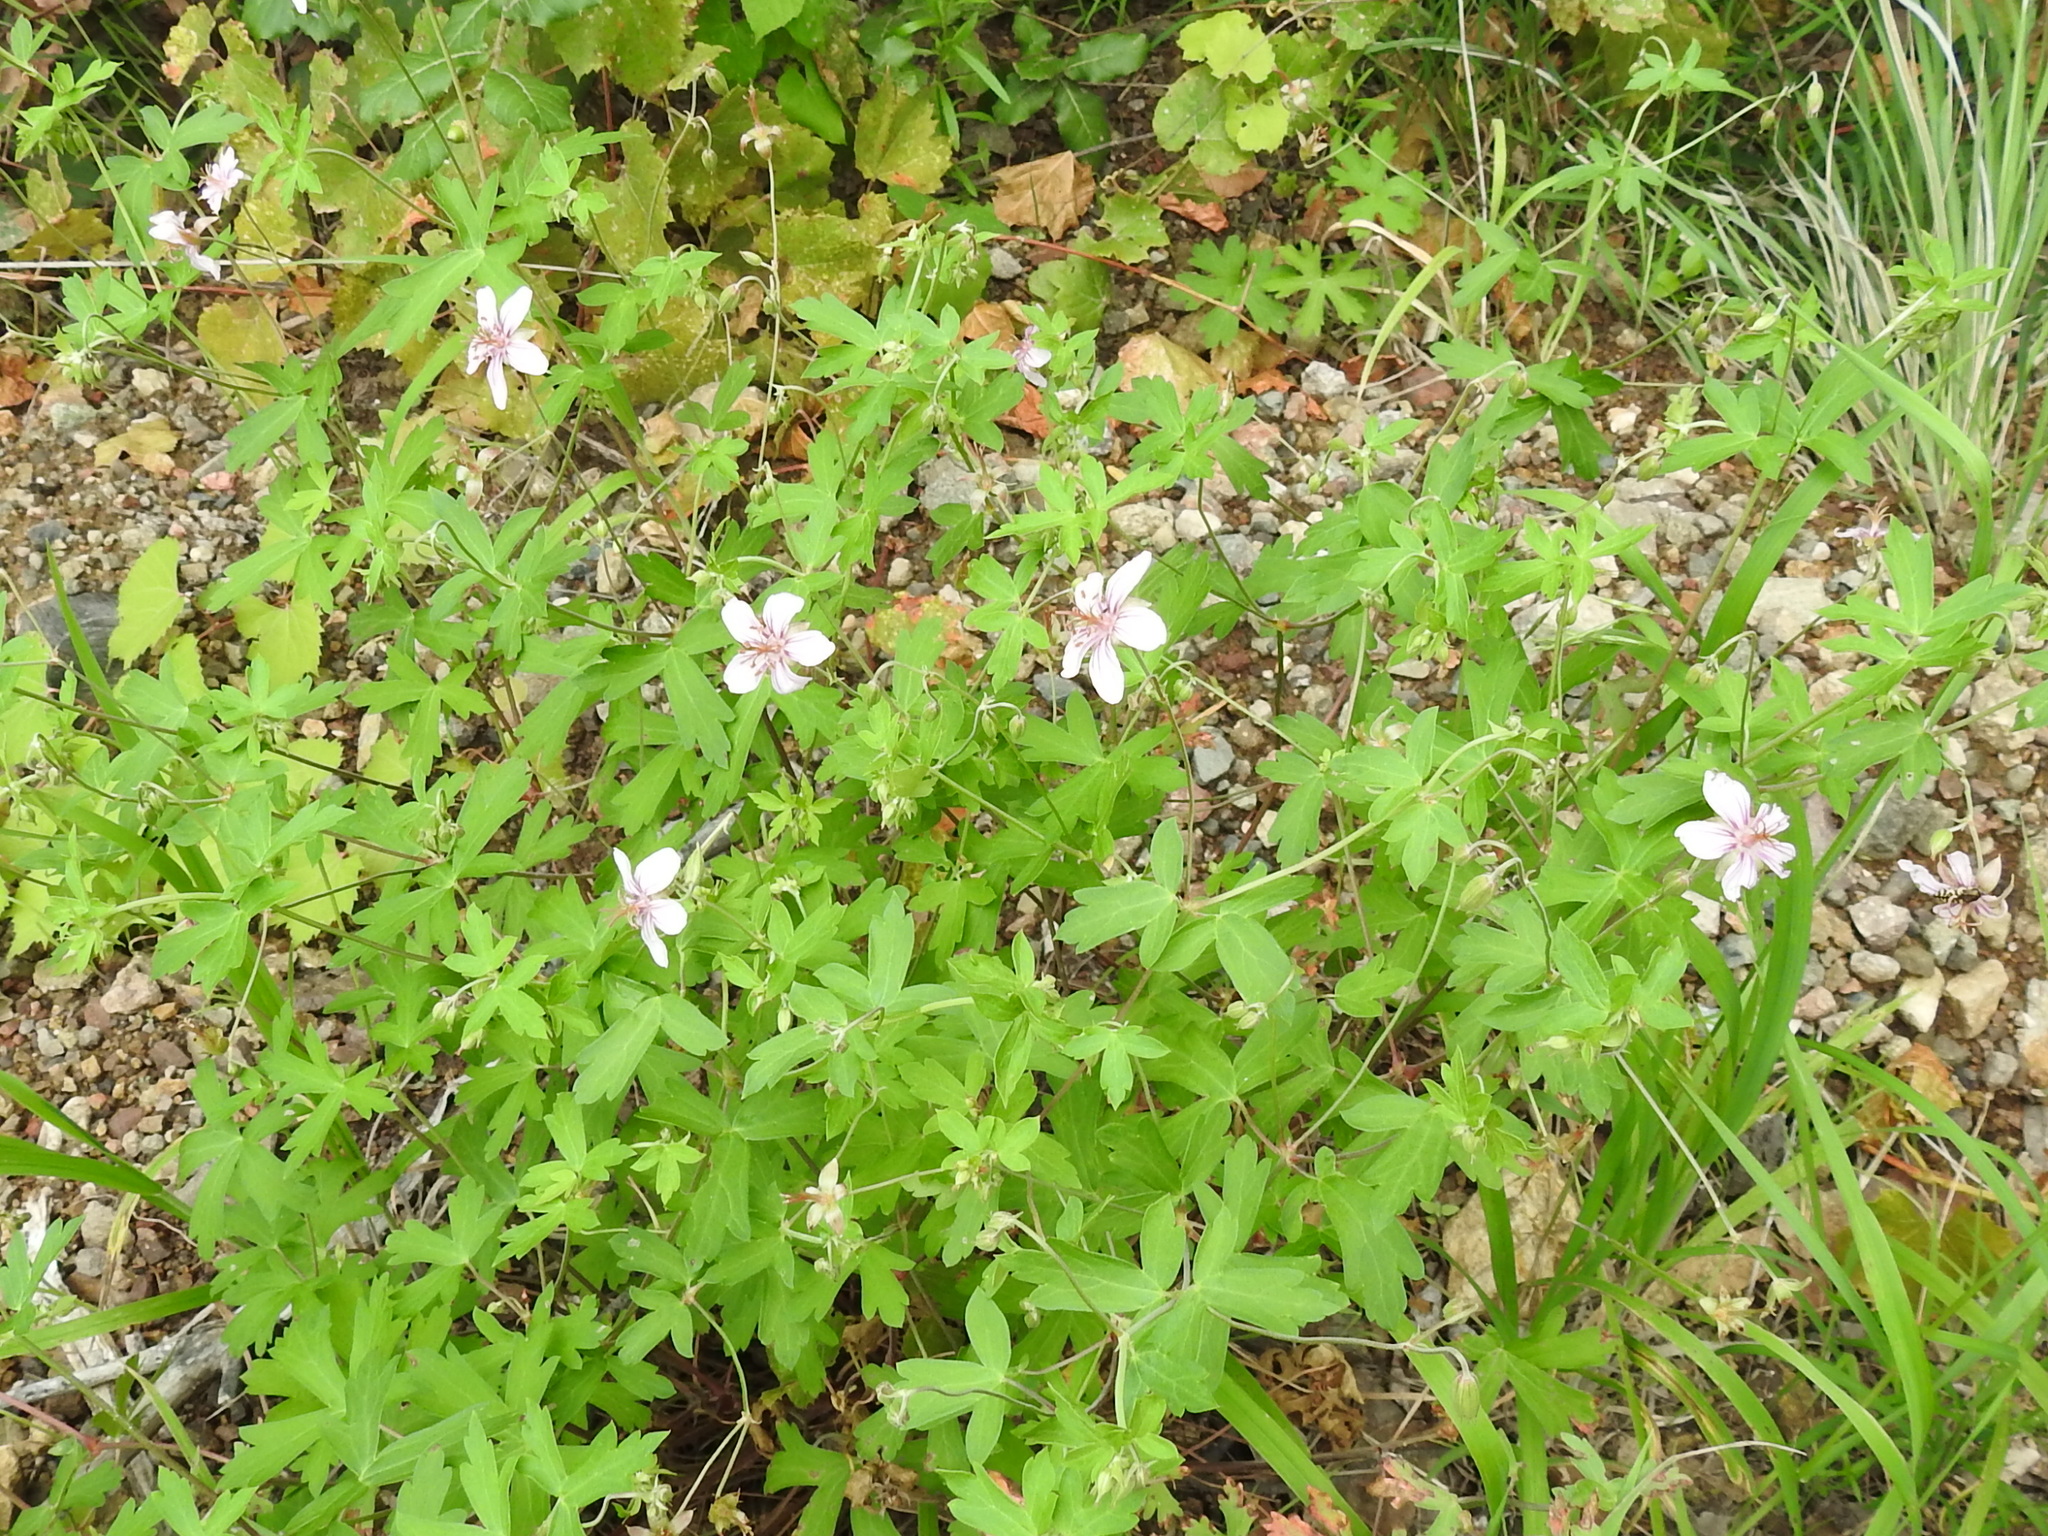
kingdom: Plantae
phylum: Tracheophyta
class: Magnoliopsida
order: Geraniales
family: Geraniaceae
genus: Geranium
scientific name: Geranium caespitosum
